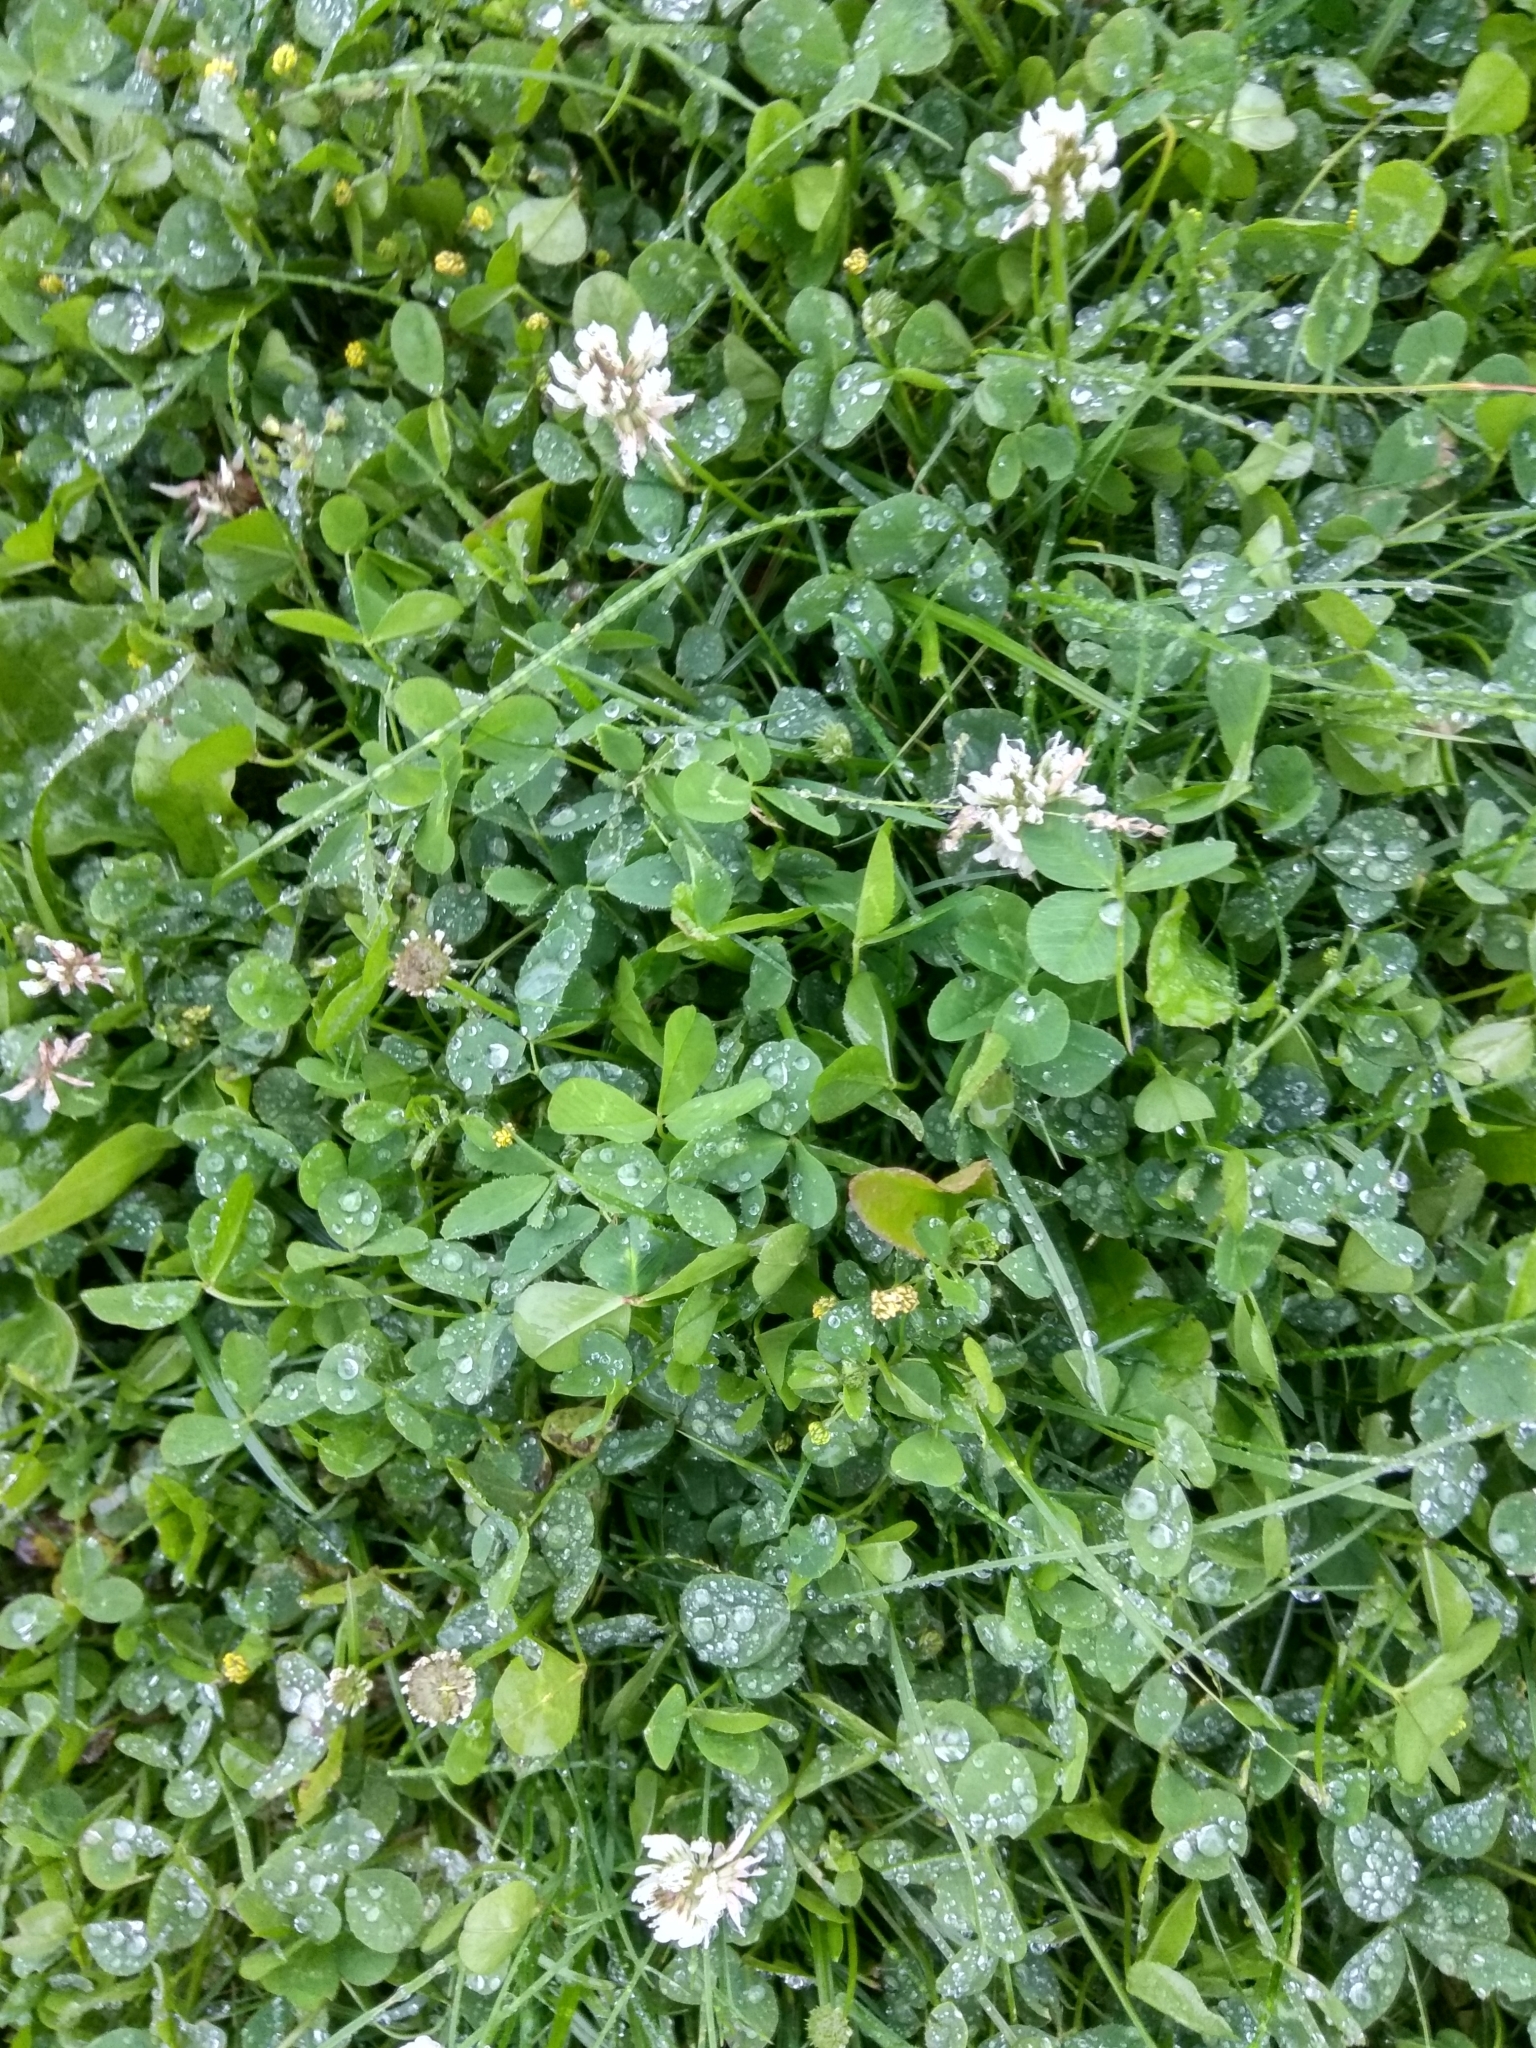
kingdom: Plantae
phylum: Tracheophyta
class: Magnoliopsida
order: Fabales
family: Fabaceae
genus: Trifolium
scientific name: Trifolium repens
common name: White clover
